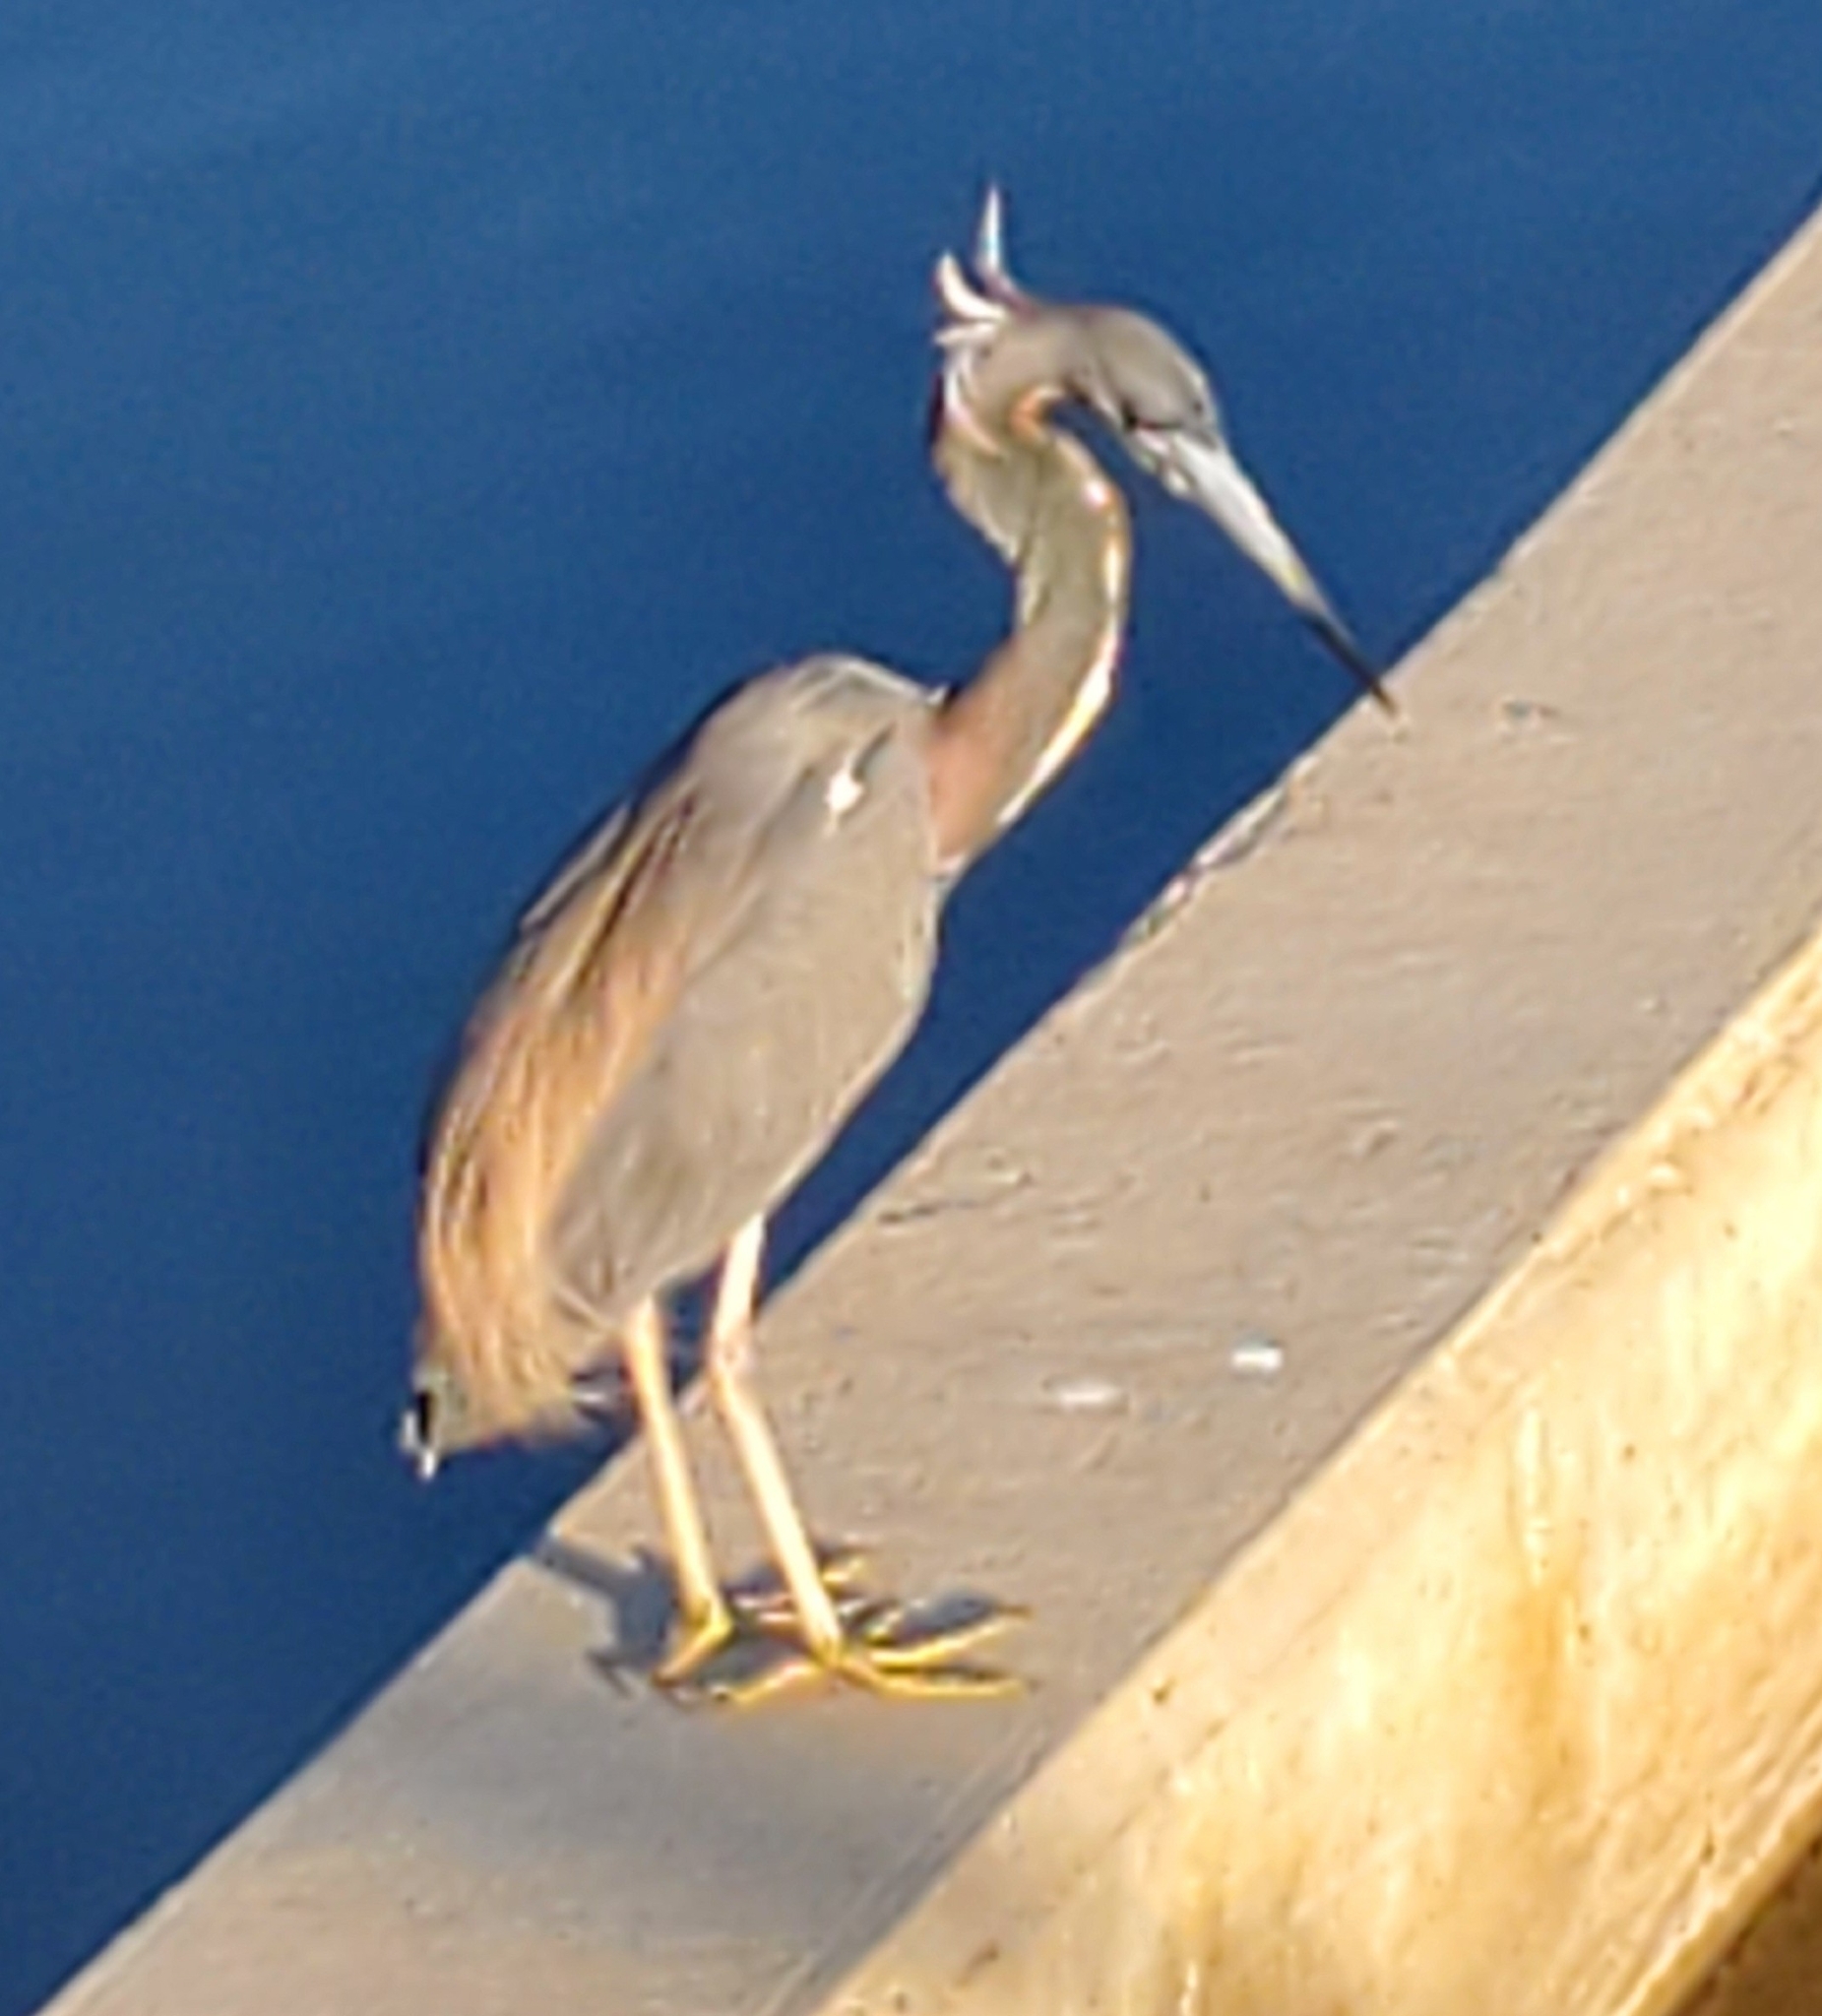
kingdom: Animalia
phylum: Chordata
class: Aves
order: Pelecaniformes
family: Ardeidae
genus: Egretta
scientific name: Egretta tricolor
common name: Tricolored heron
